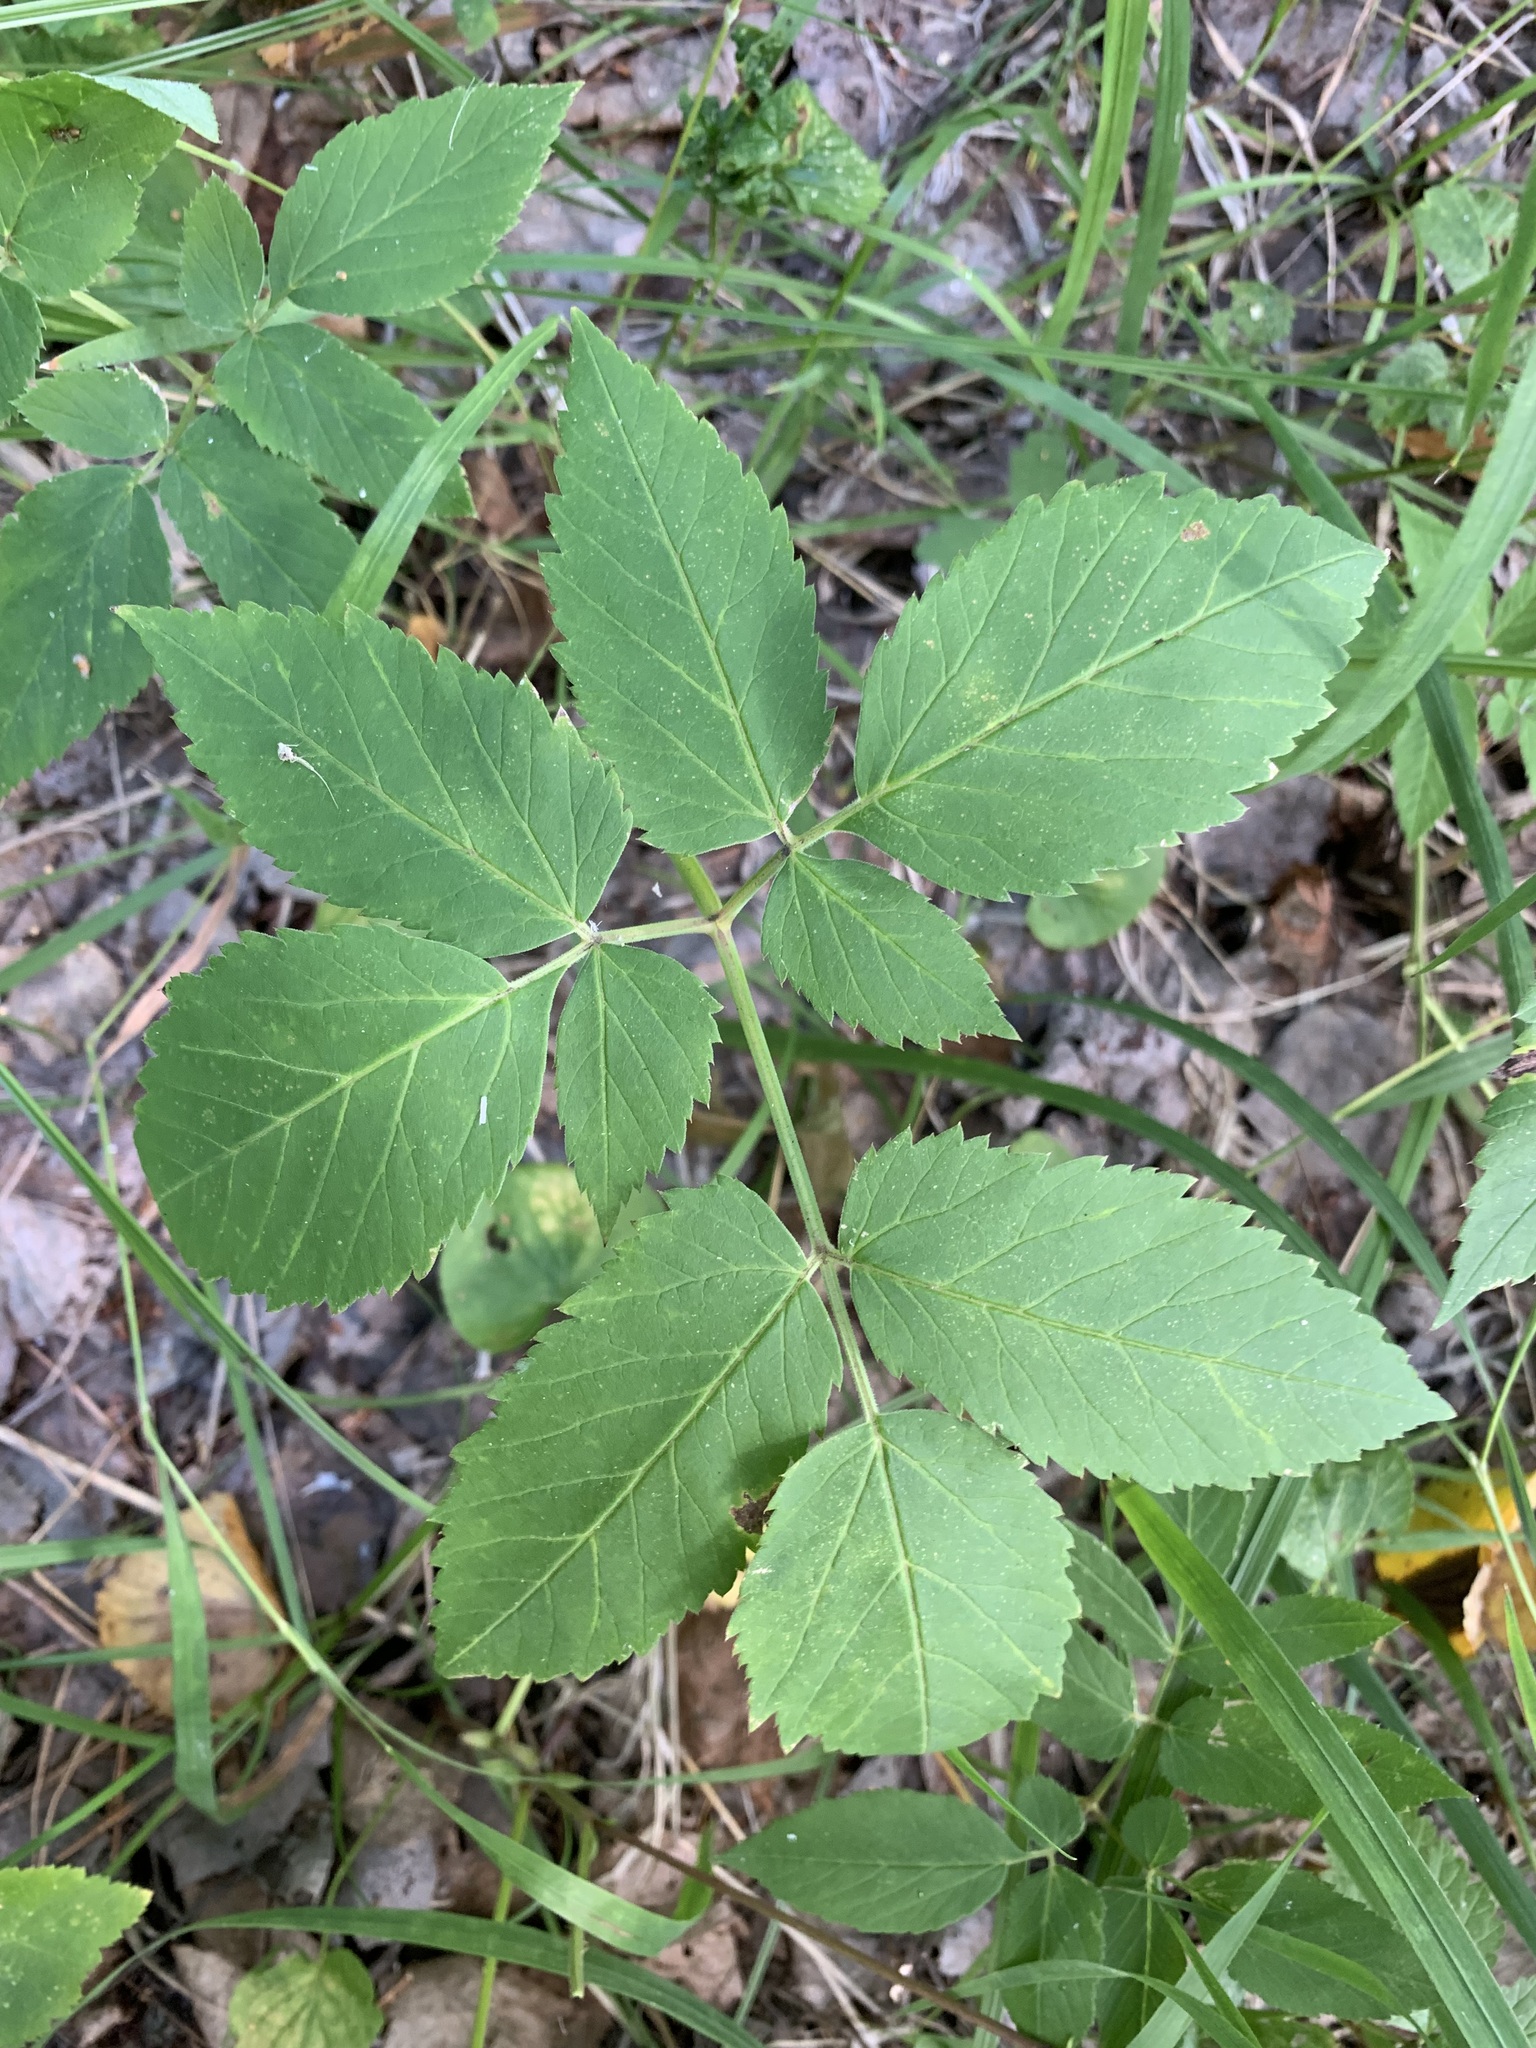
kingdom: Plantae
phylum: Tracheophyta
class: Magnoliopsida
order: Apiales
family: Apiaceae
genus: Aegopodium
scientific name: Aegopodium podagraria
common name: Ground-elder
